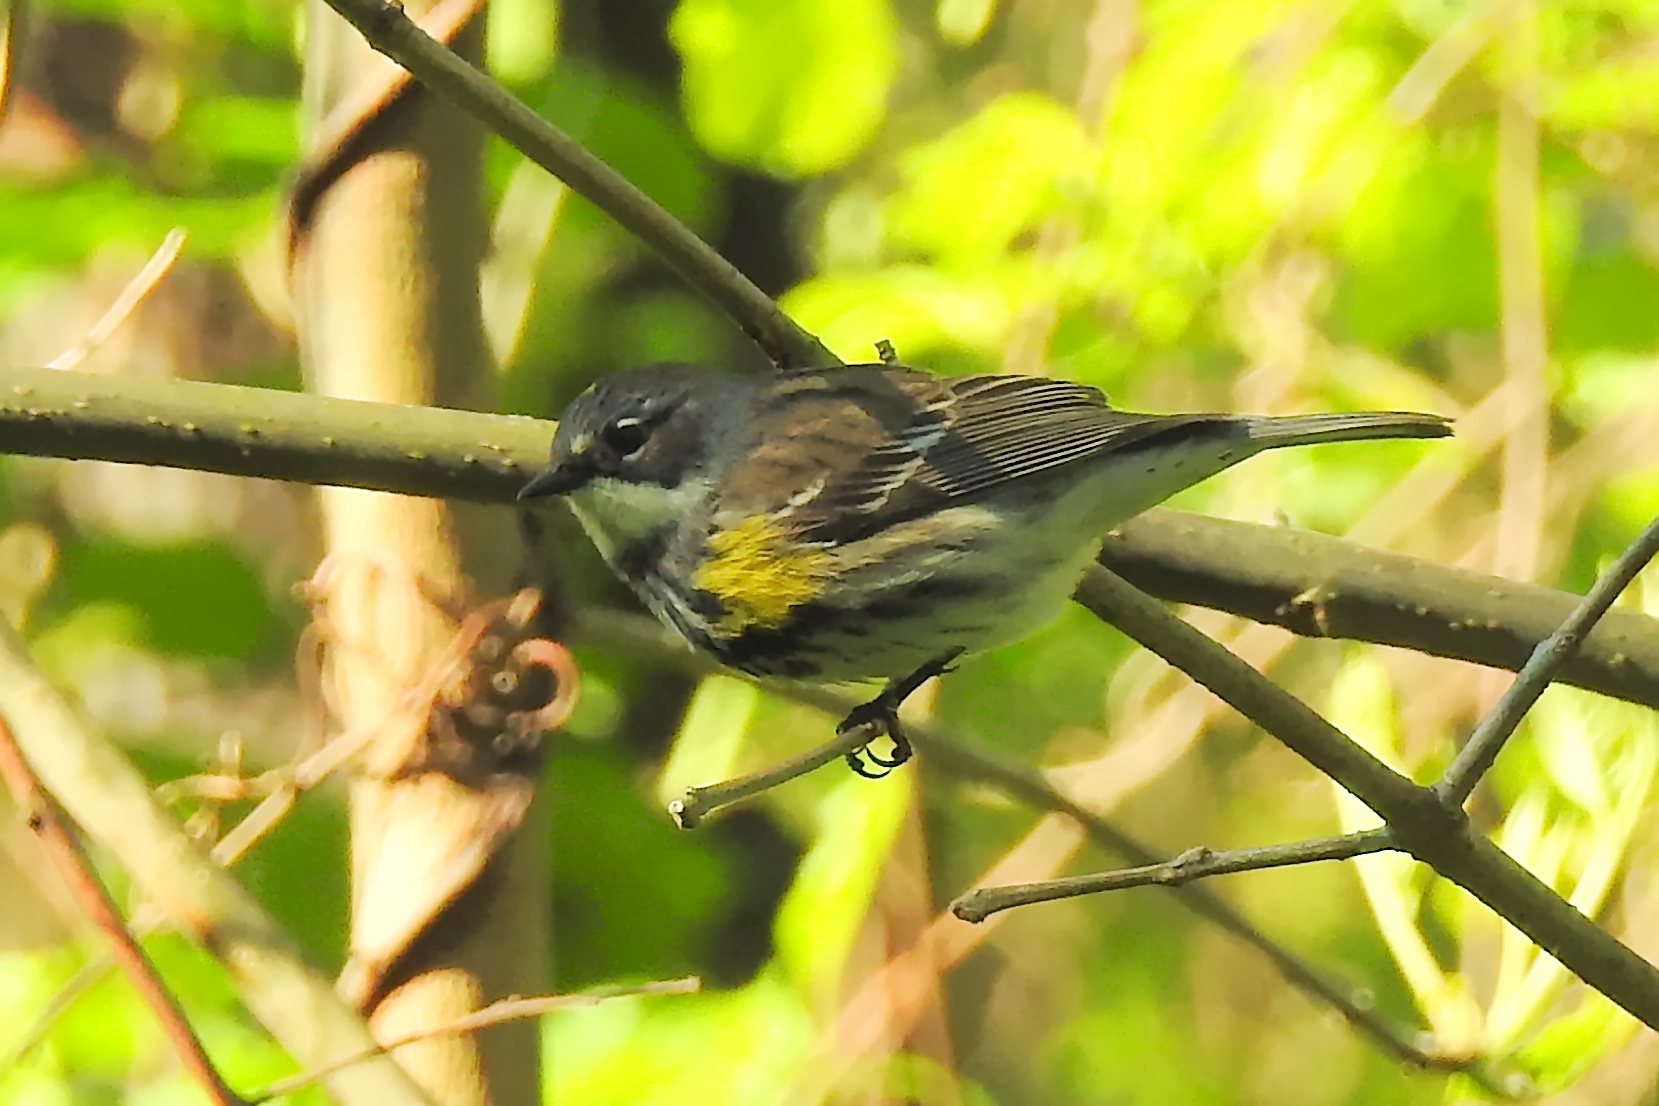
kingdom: Animalia
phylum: Chordata
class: Aves
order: Passeriformes
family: Parulidae
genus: Setophaga
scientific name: Setophaga coronata
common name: Myrtle warbler
